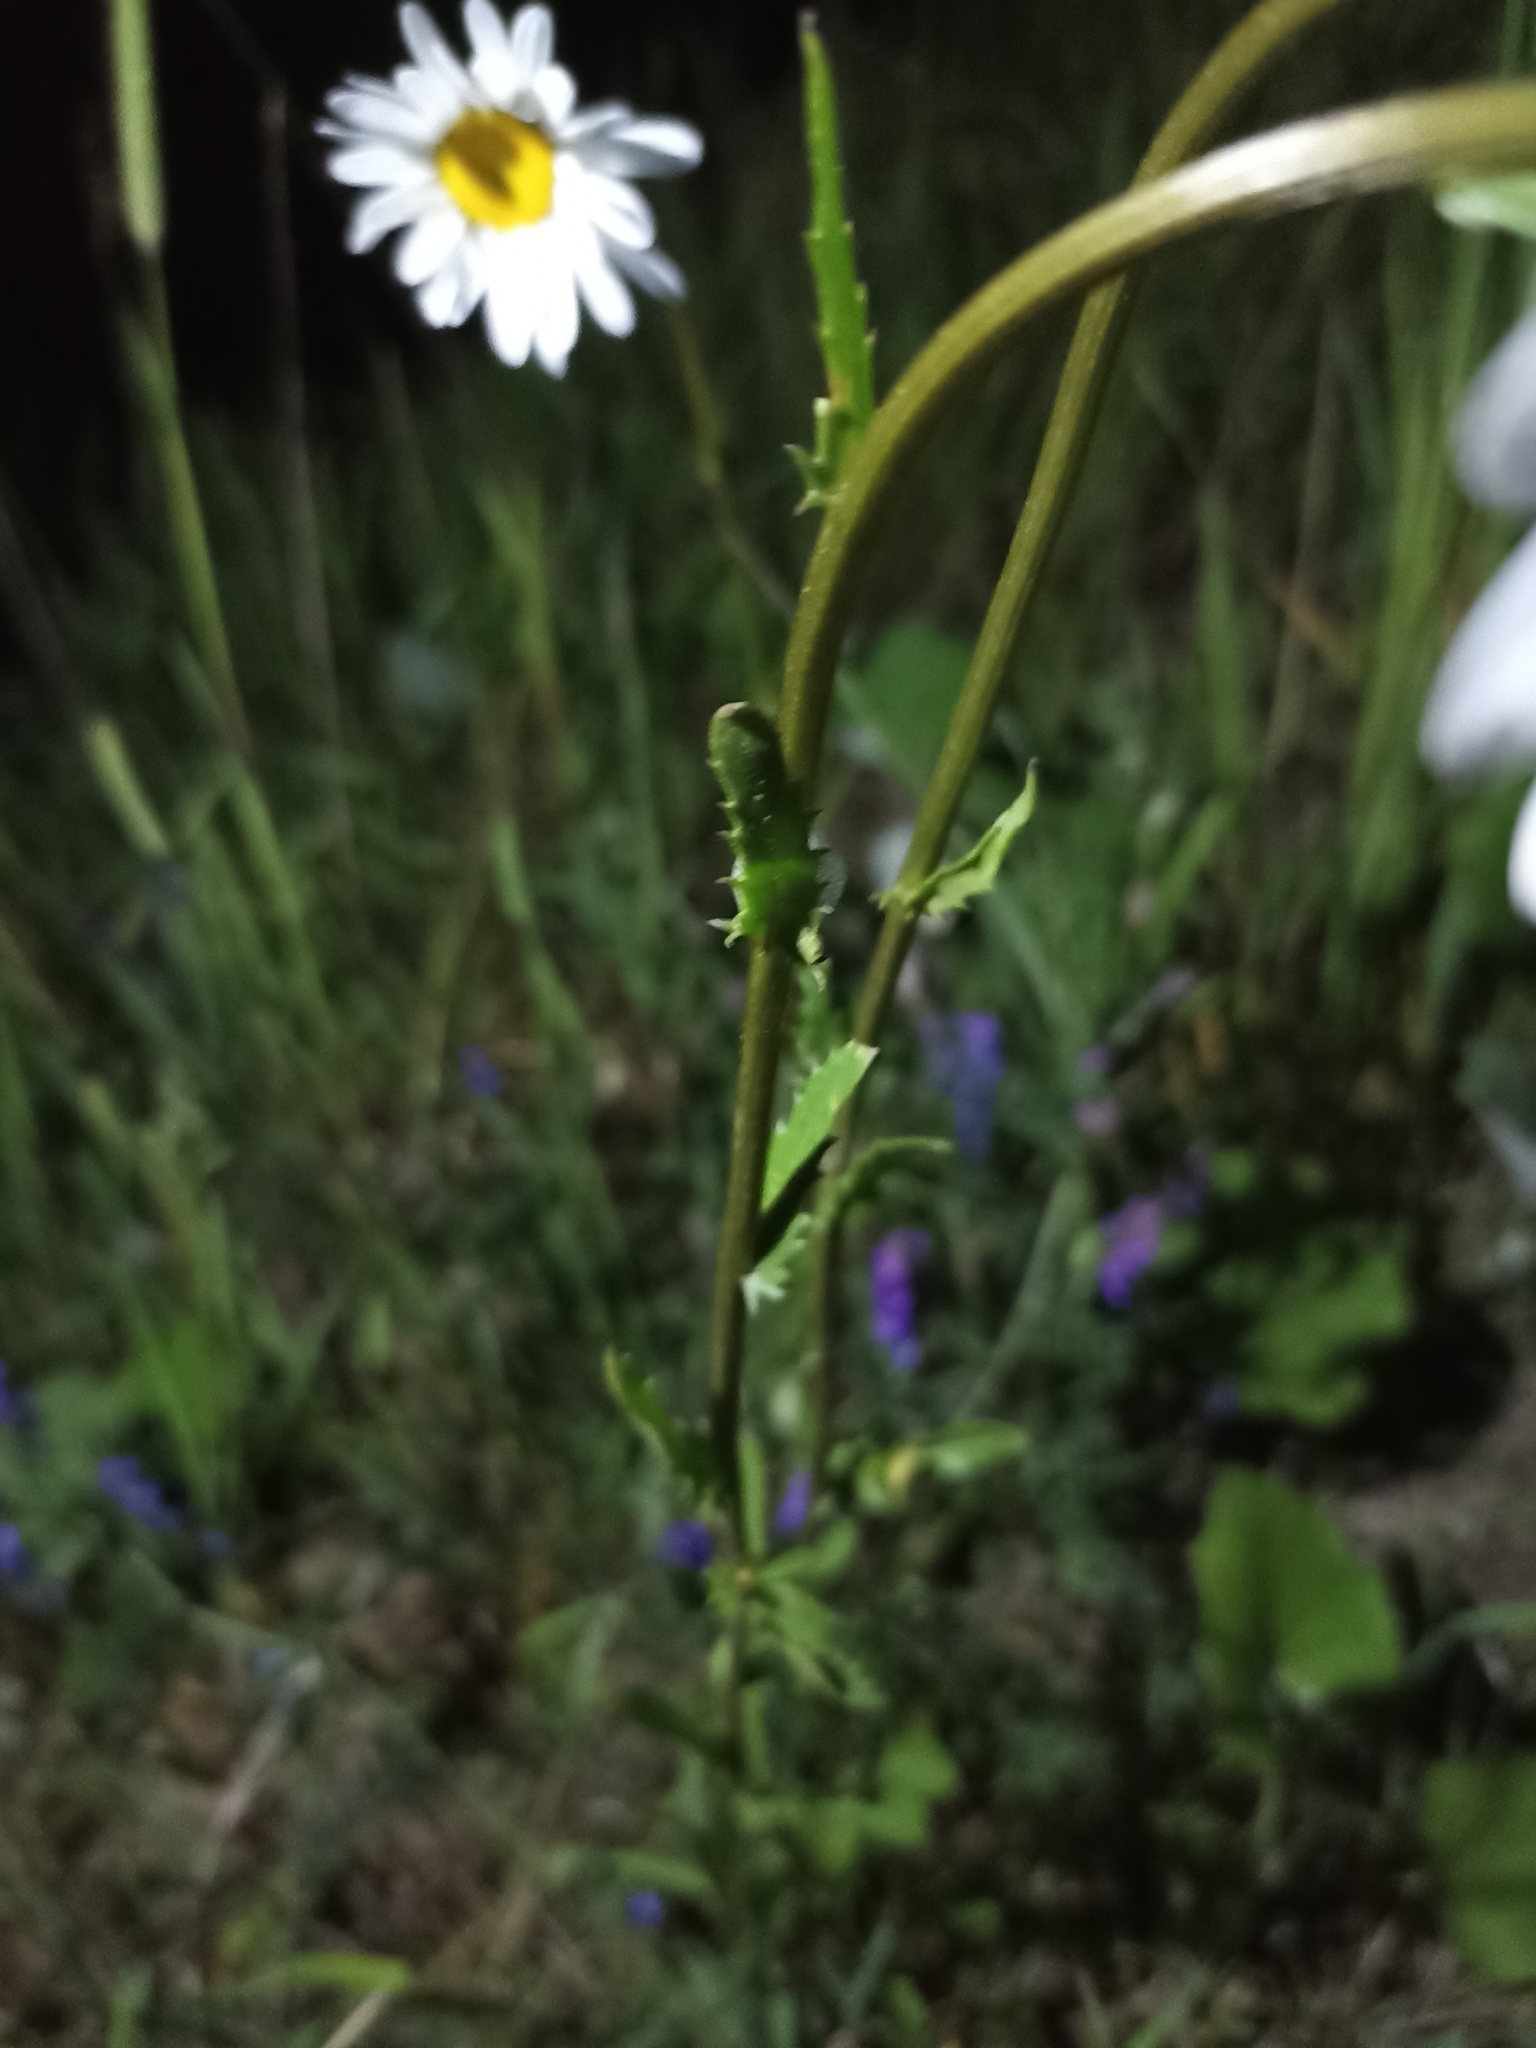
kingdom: Plantae
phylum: Tracheophyta
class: Magnoliopsida
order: Asterales
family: Asteraceae
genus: Leucanthemum
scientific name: Leucanthemum vulgare
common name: Oxeye daisy
